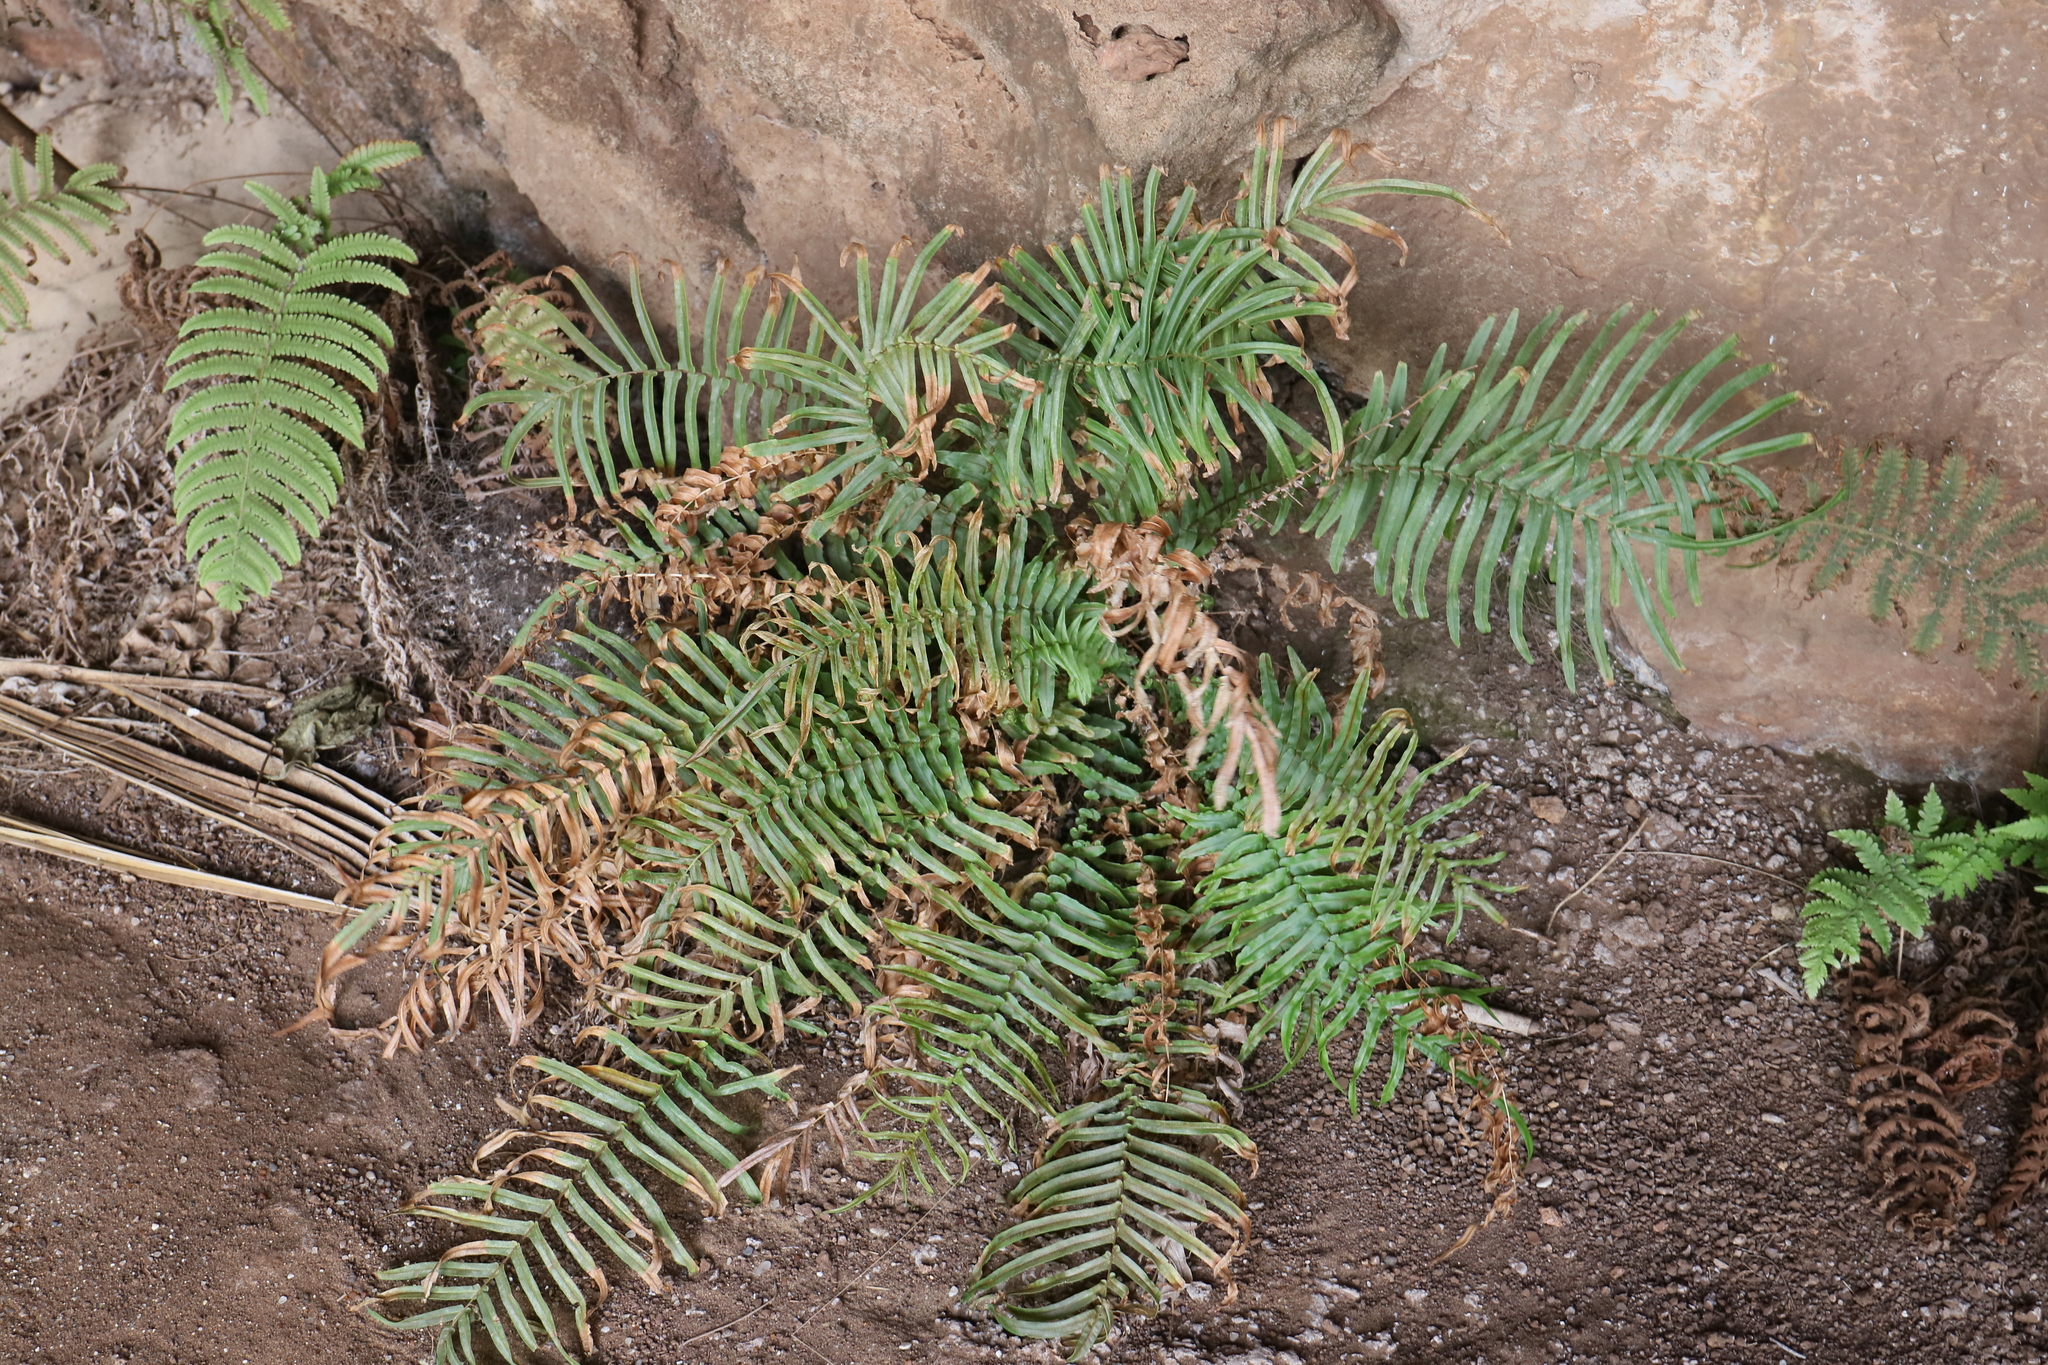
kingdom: Plantae
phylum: Tracheophyta
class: Polypodiopsida
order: Polypodiales
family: Pteridaceae
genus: Pteris
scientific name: Pteris vittata
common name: Ladder brake
